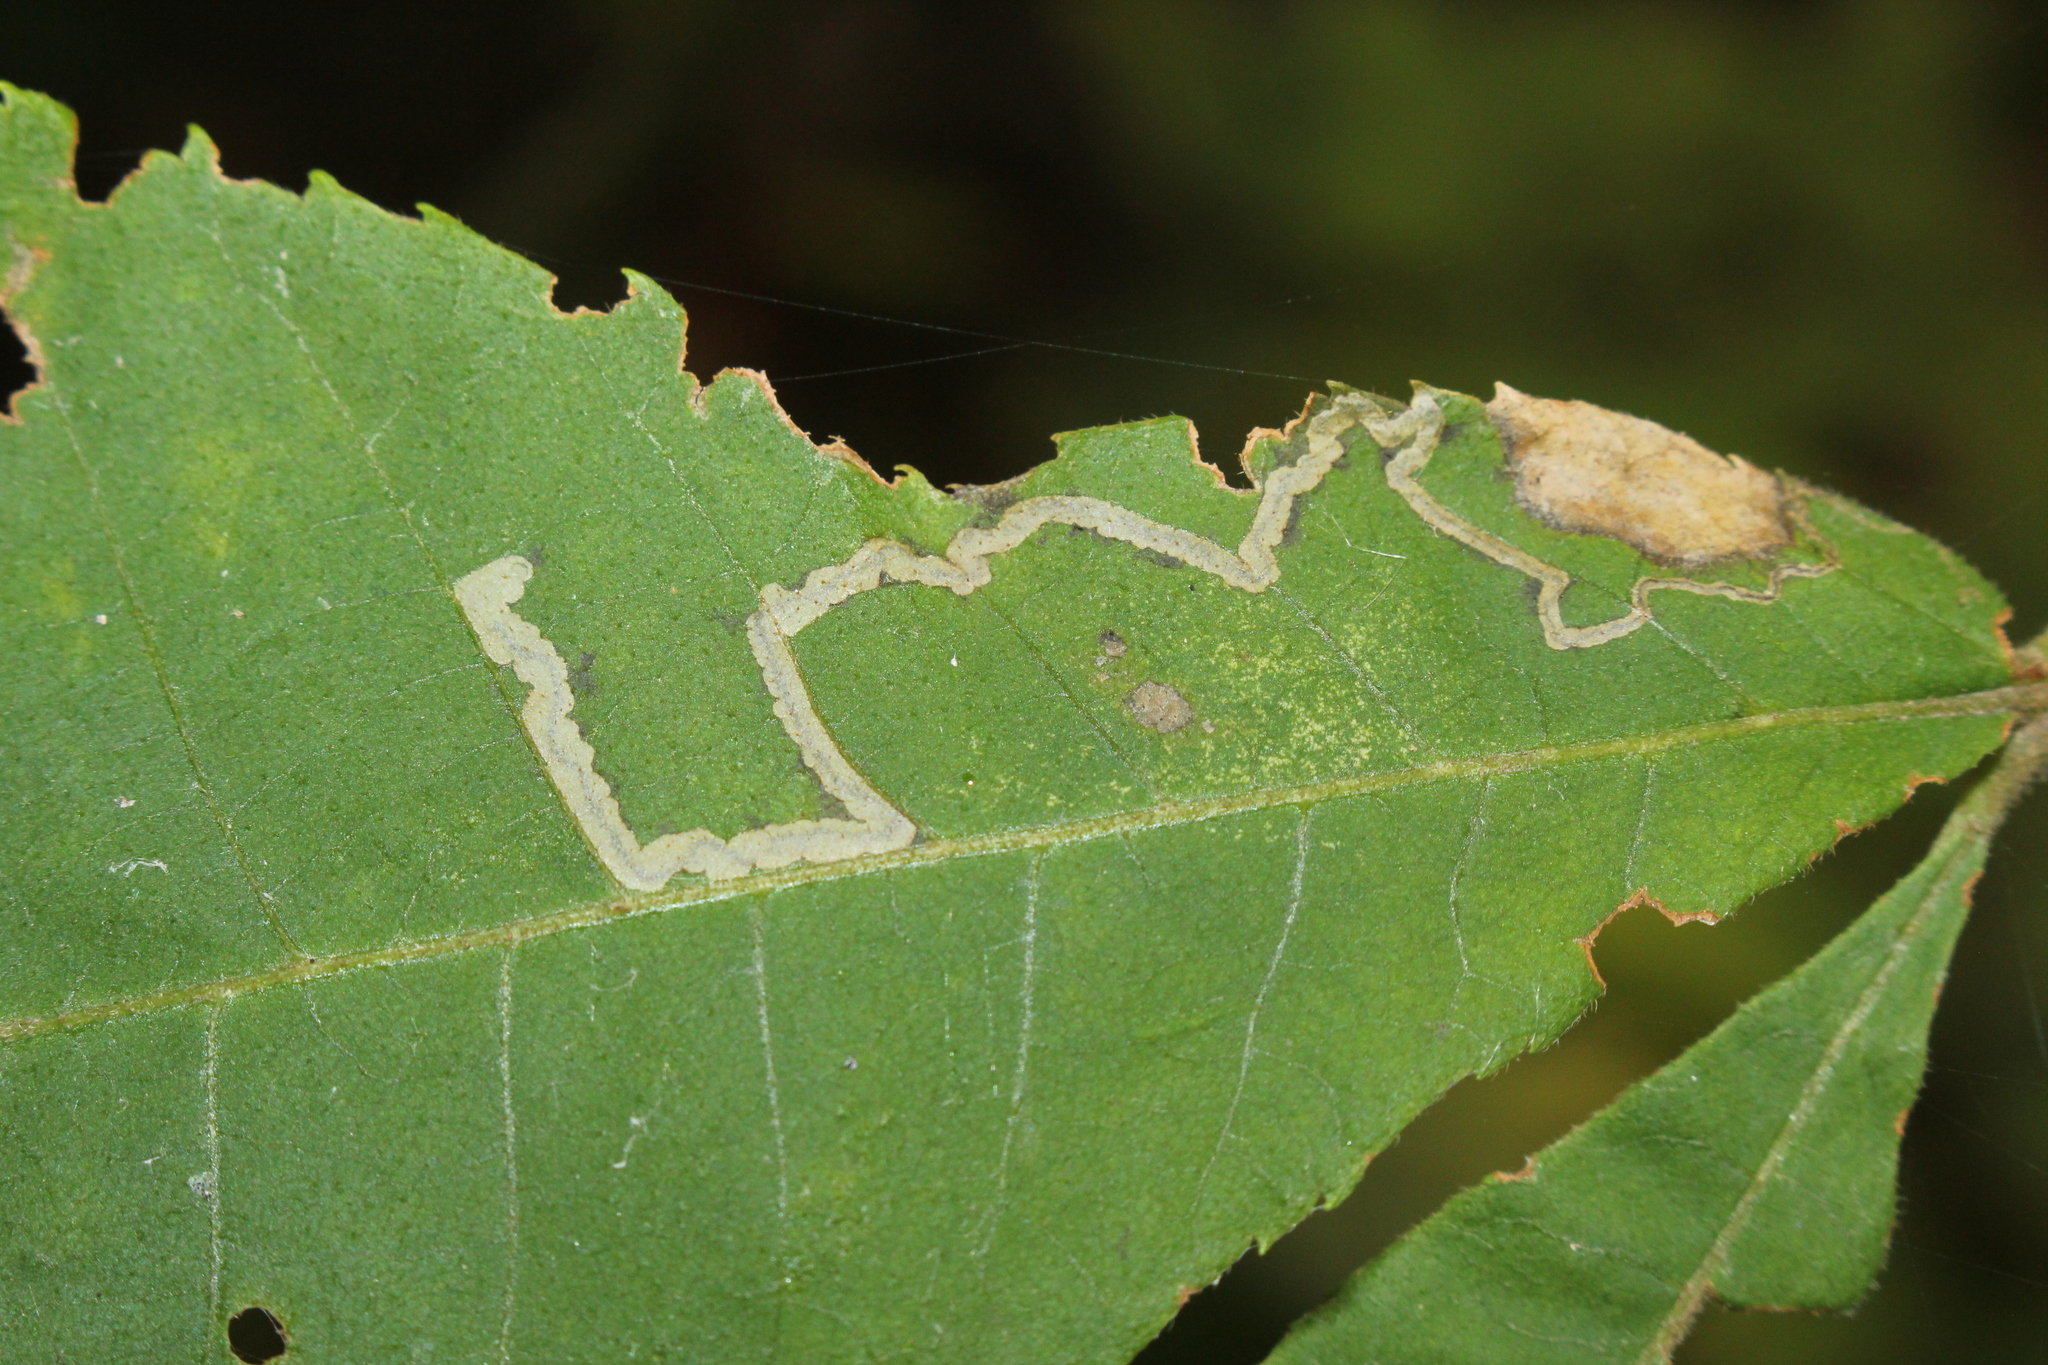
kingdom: Animalia
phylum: Arthropoda
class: Insecta
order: Lepidoptera
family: Nepticulidae
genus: Stigmella
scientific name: Stigmella caryaefoliella
